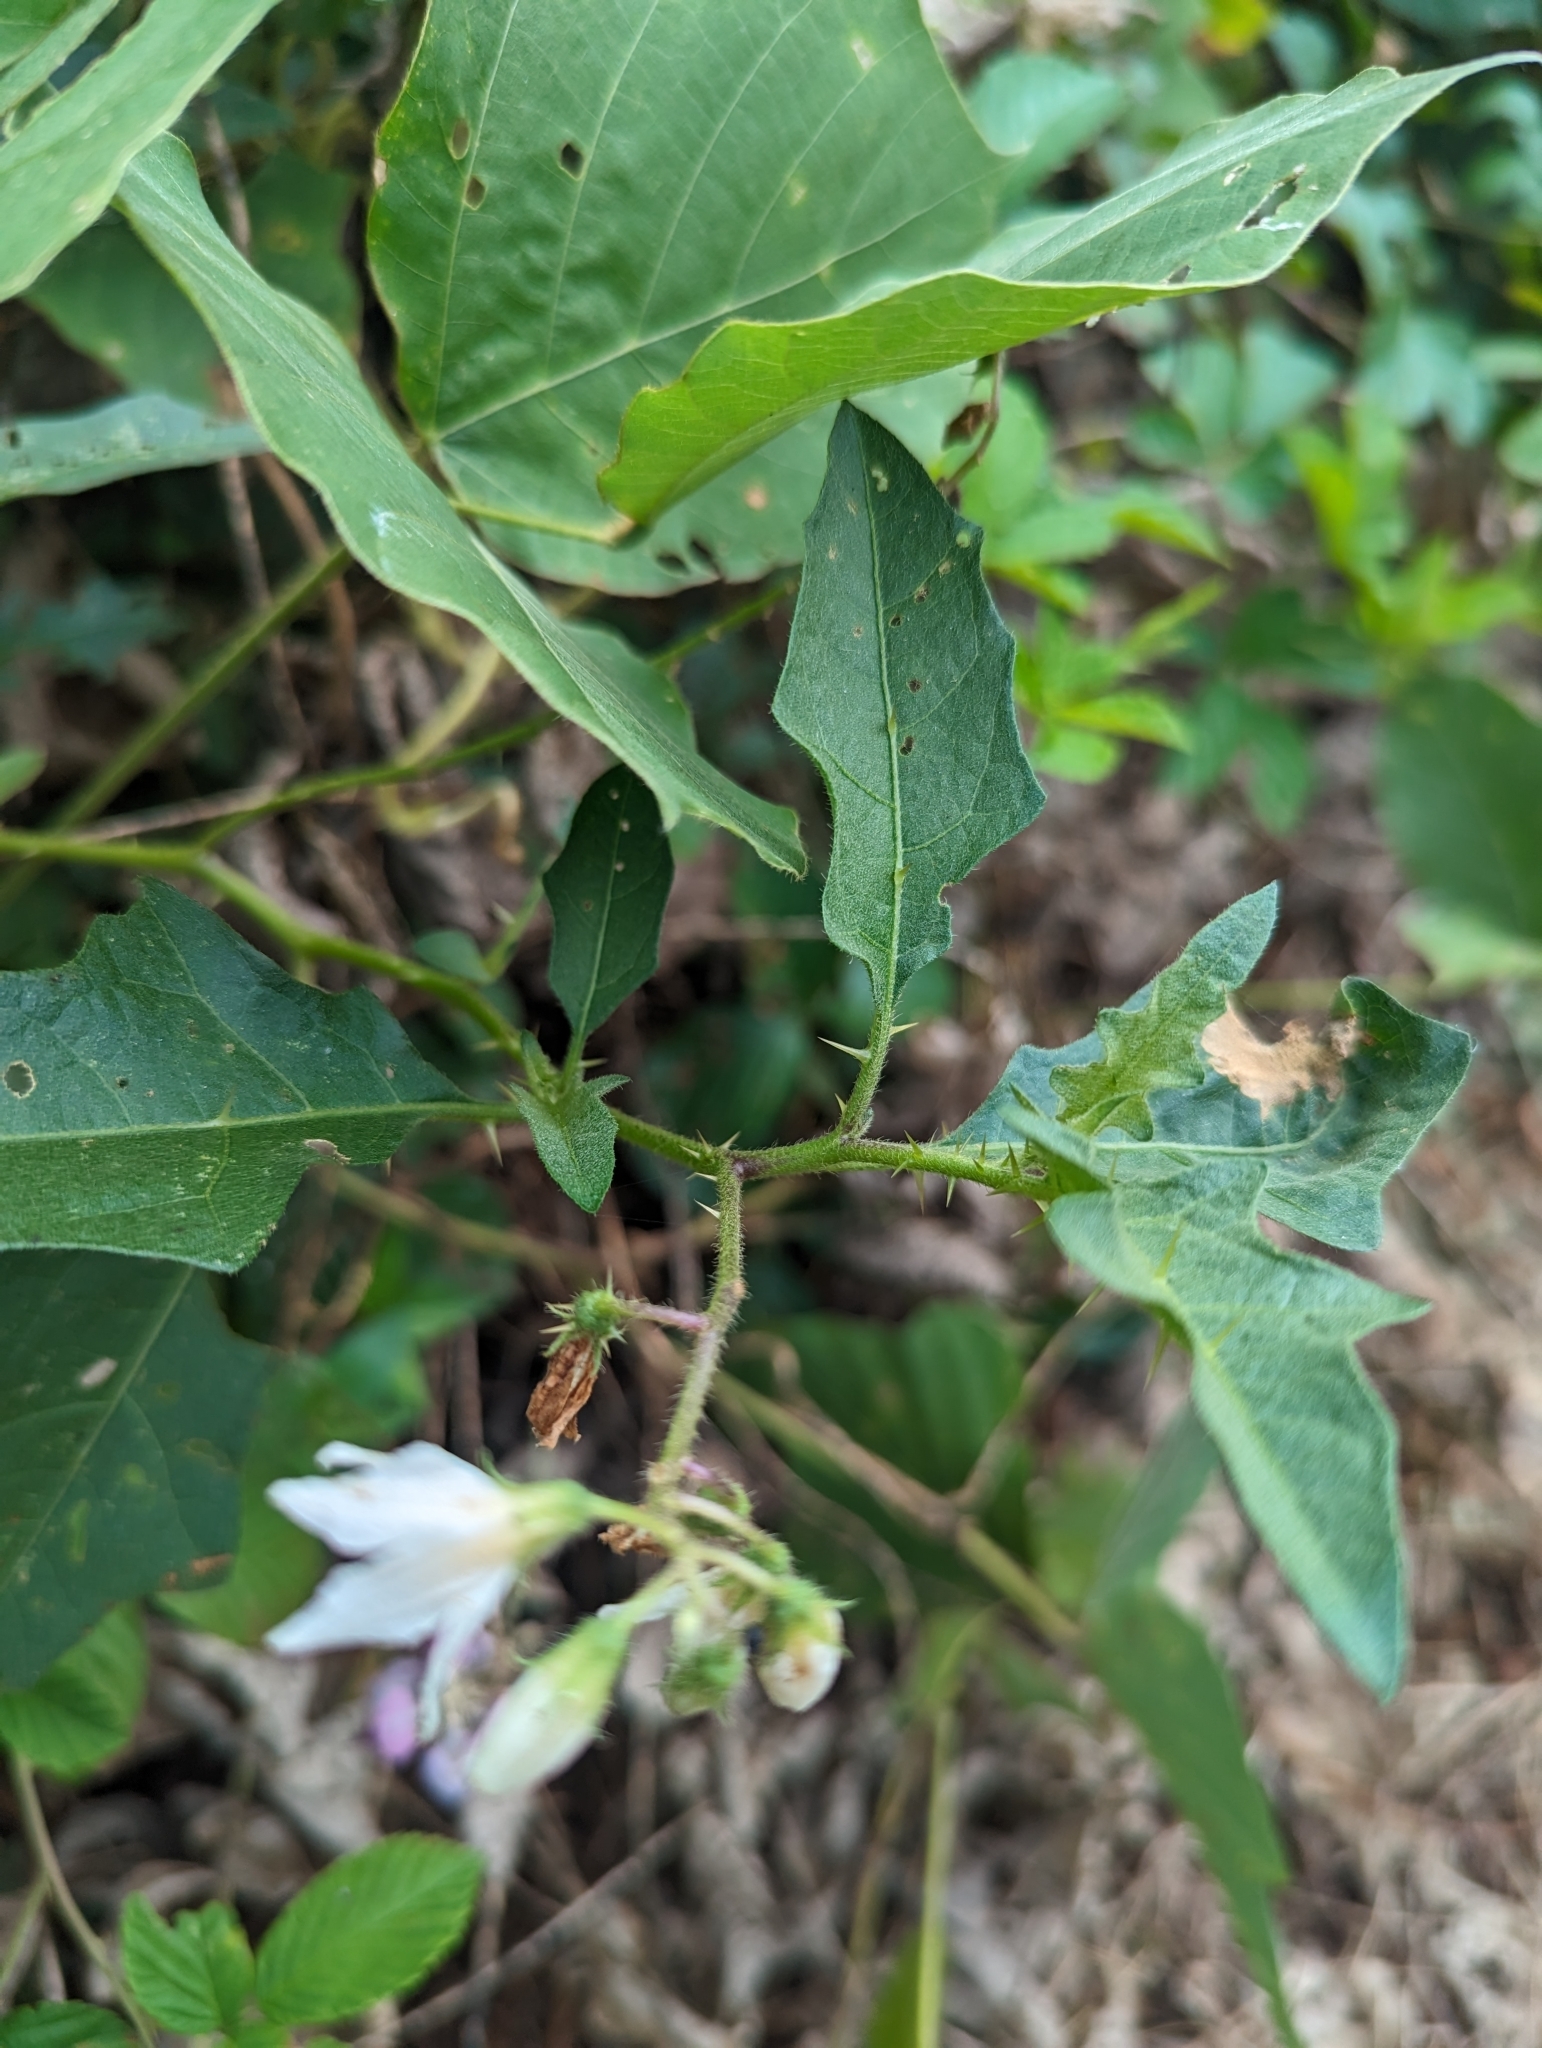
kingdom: Plantae
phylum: Tracheophyta
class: Magnoliopsida
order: Solanales
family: Solanaceae
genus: Solanum
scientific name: Solanum carolinense
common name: Horse-nettle
